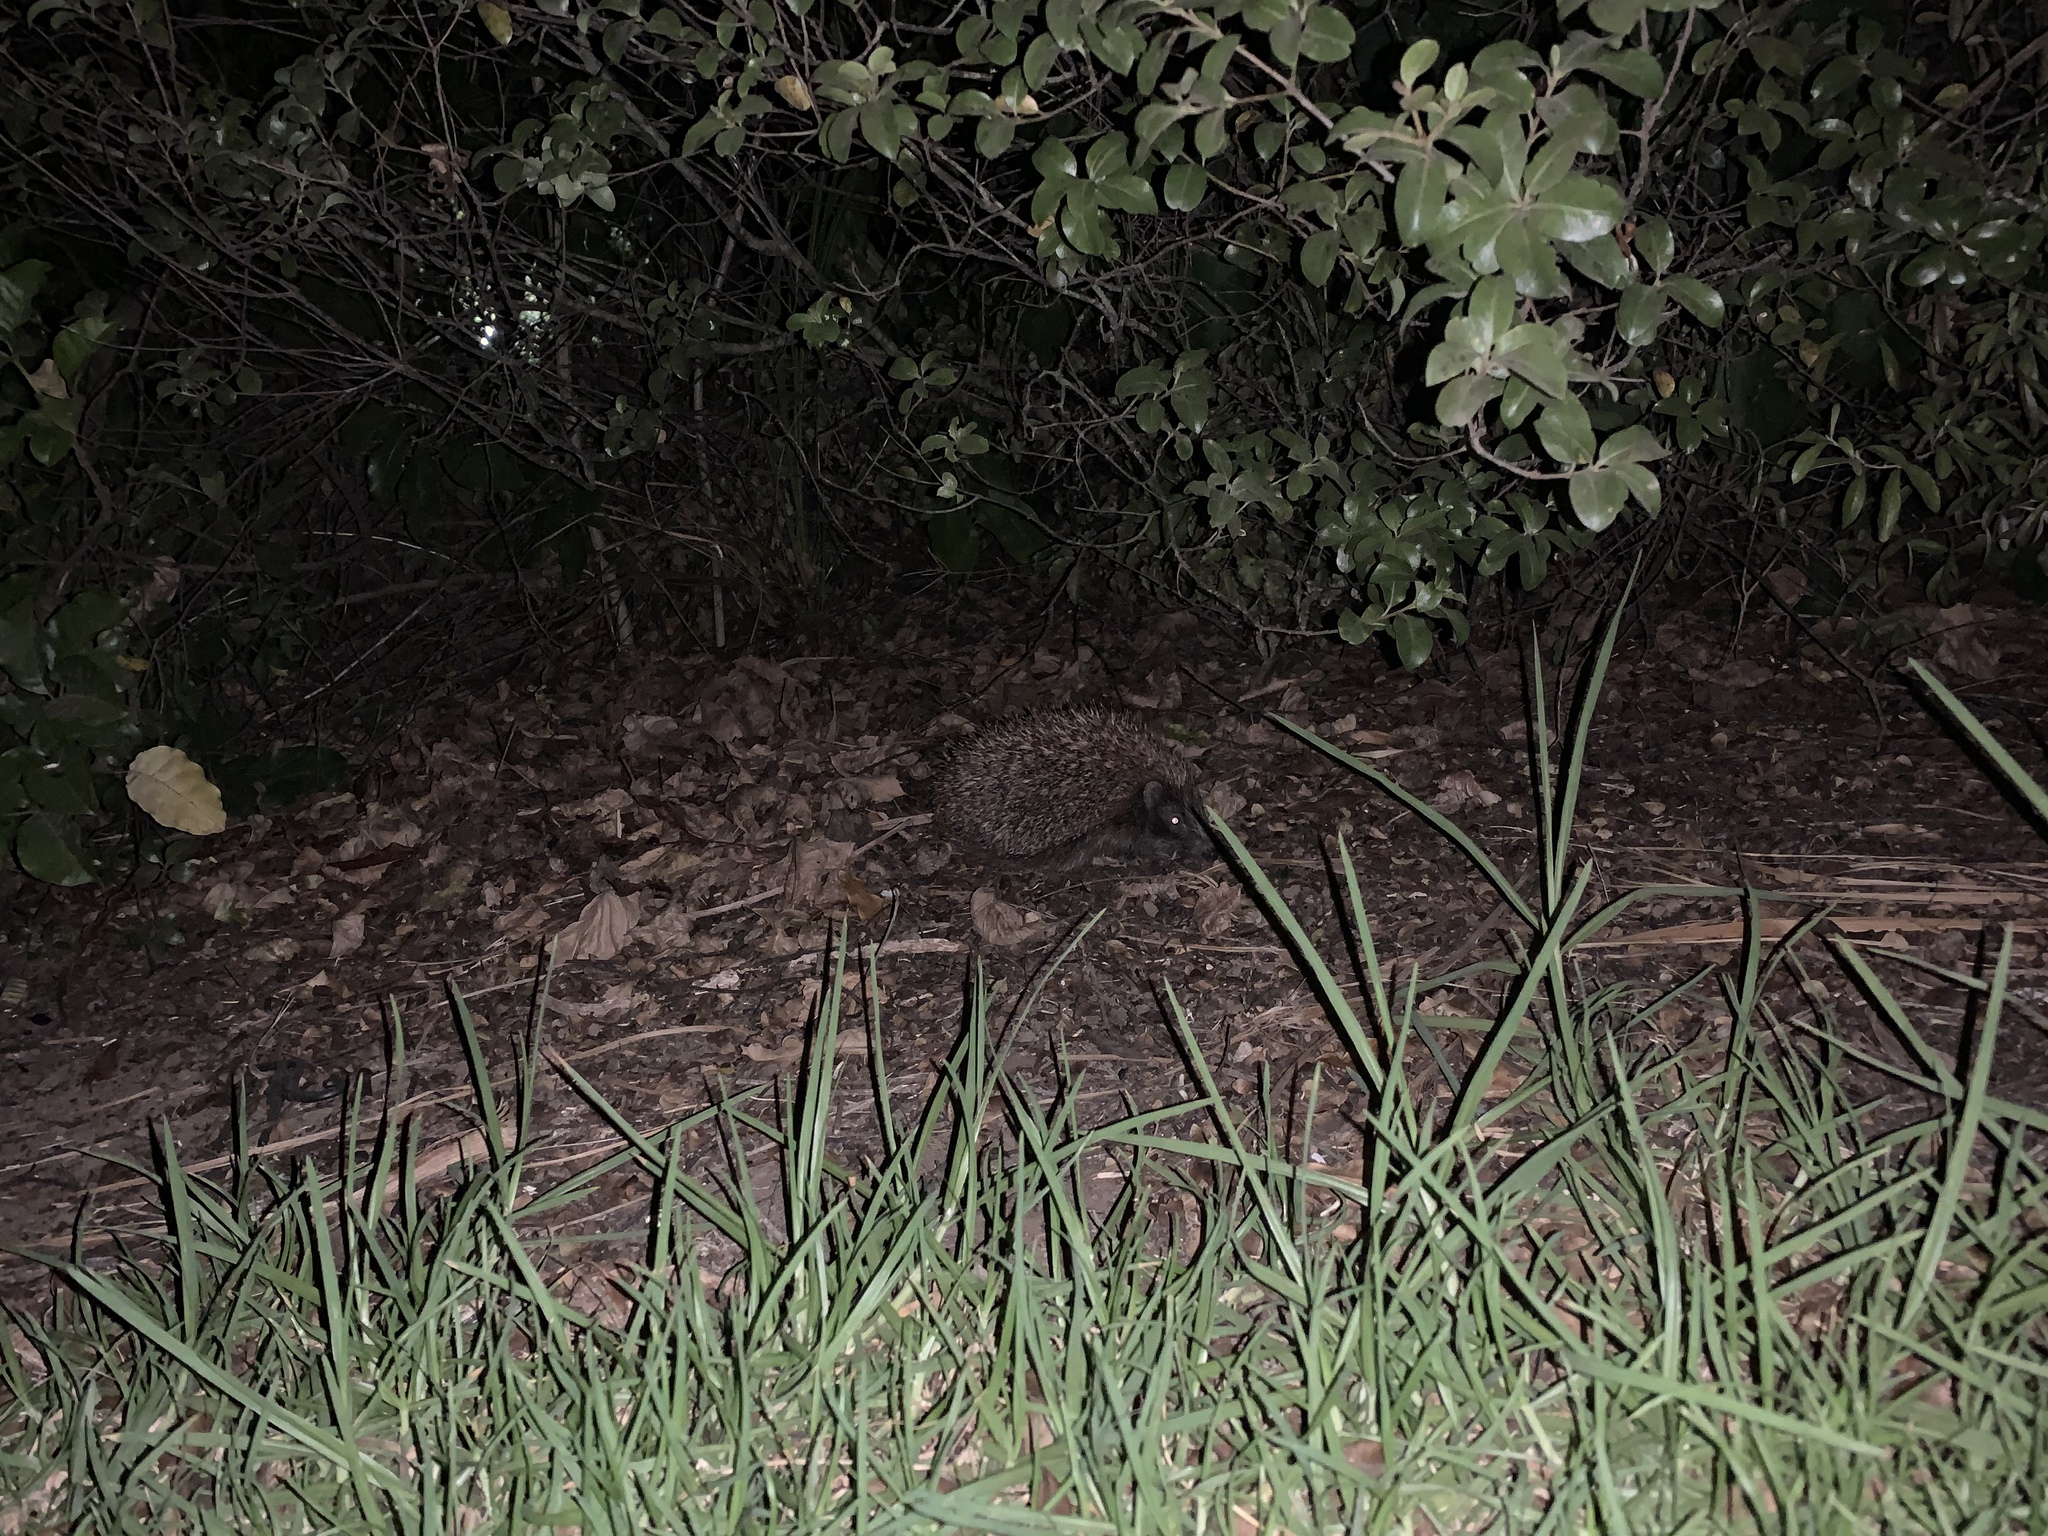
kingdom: Animalia
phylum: Chordata
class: Mammalia
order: Erinaceomorpha
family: Erinaceidae
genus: Erinaceus
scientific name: Erinaceus europaeus
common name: West european hedgehog
